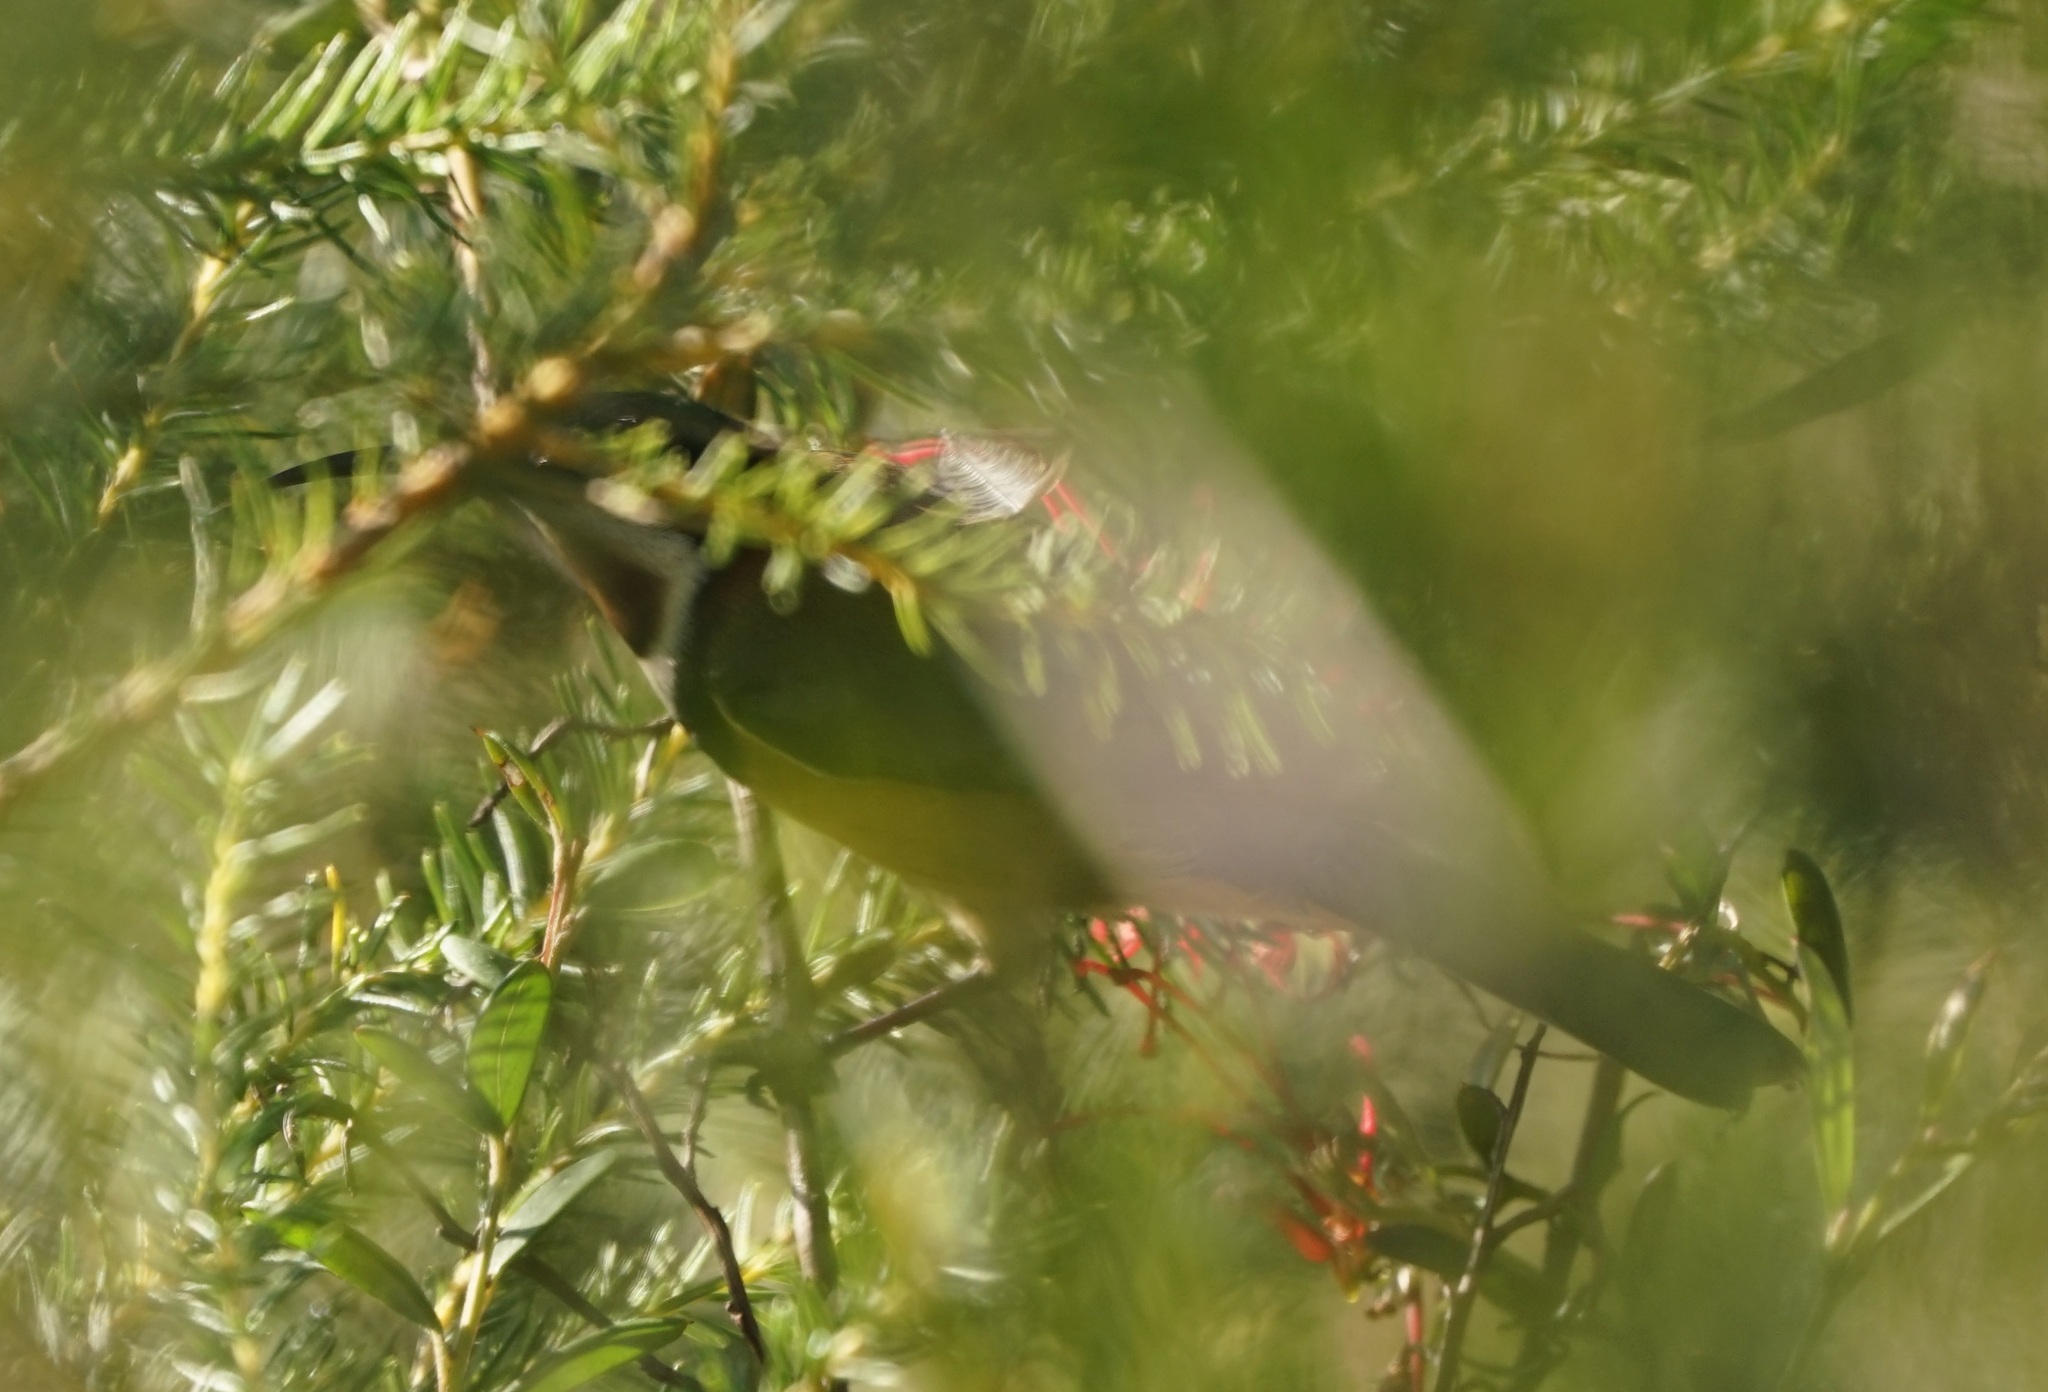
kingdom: Animalia
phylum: Chordata
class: Aves
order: Passeriformes
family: Meliphagidae
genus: Acanthorhynchus
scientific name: Acanthorhynchus tenuirostris
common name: Eastern spinebill
